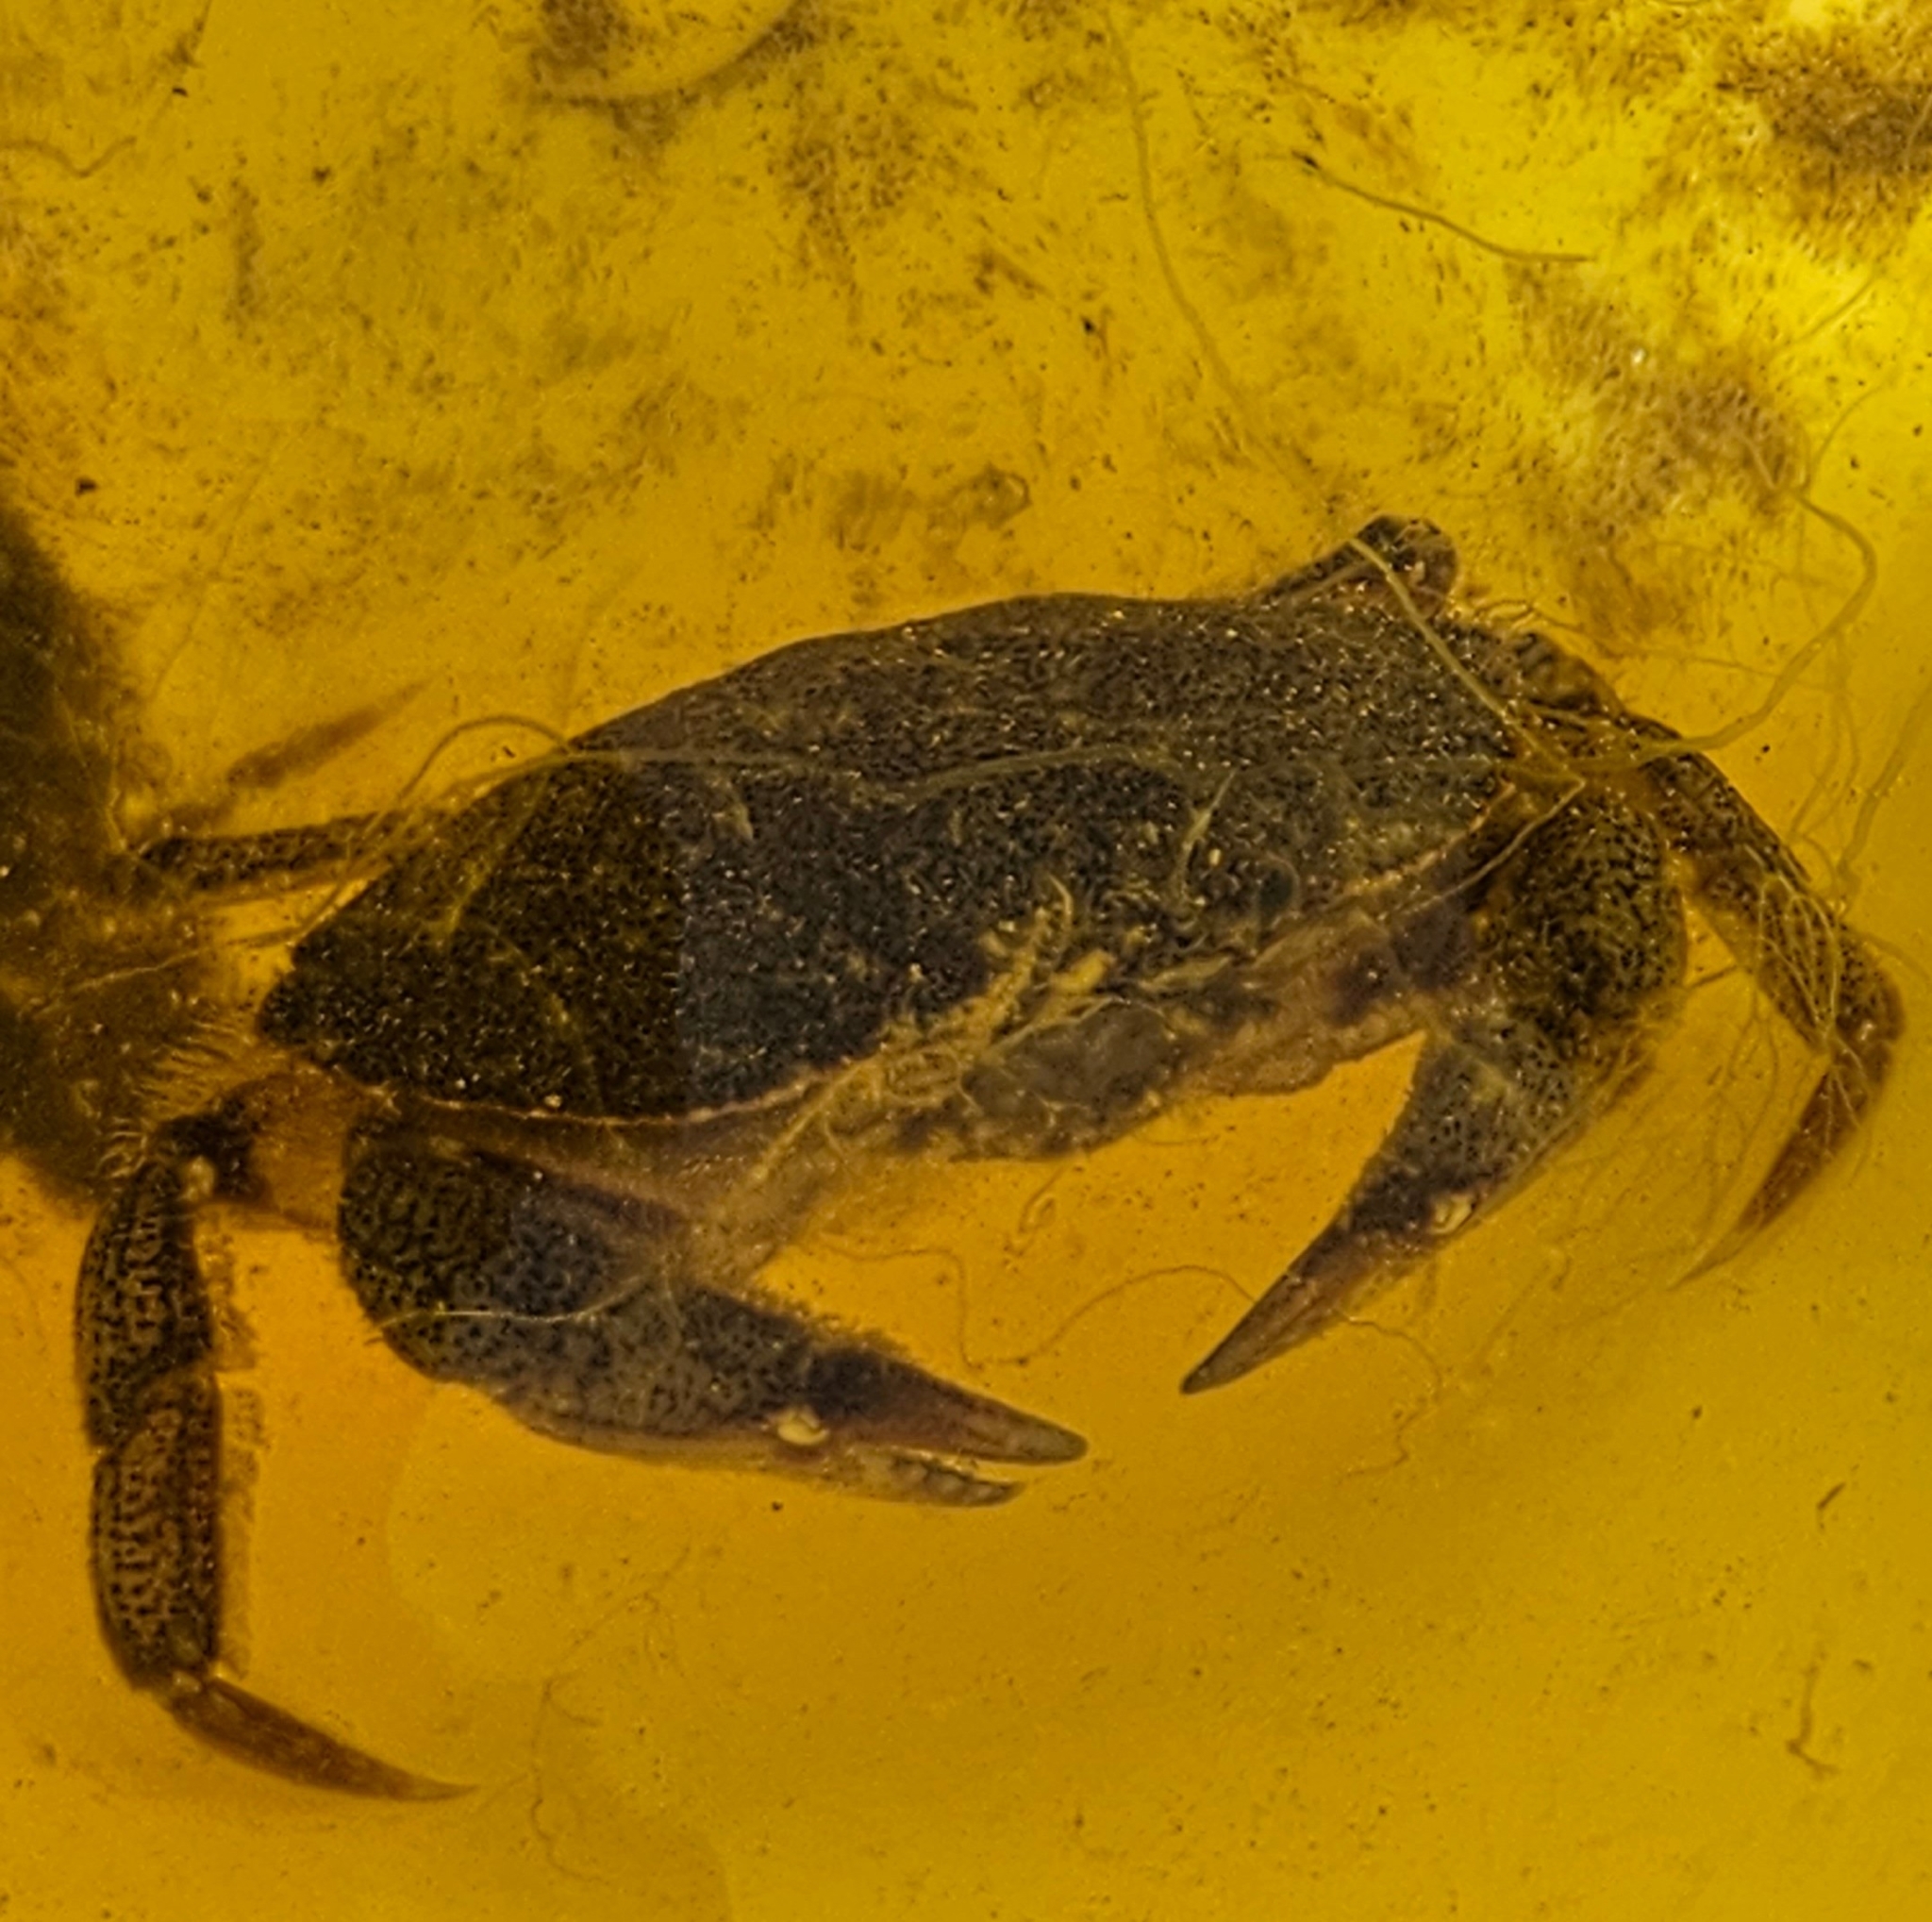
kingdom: Animalia
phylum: Arthropoda
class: Malacostraca
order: Decapoda
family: Cancridae
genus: Cancer
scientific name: Cancer irroratus
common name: Atlantic rock crab
